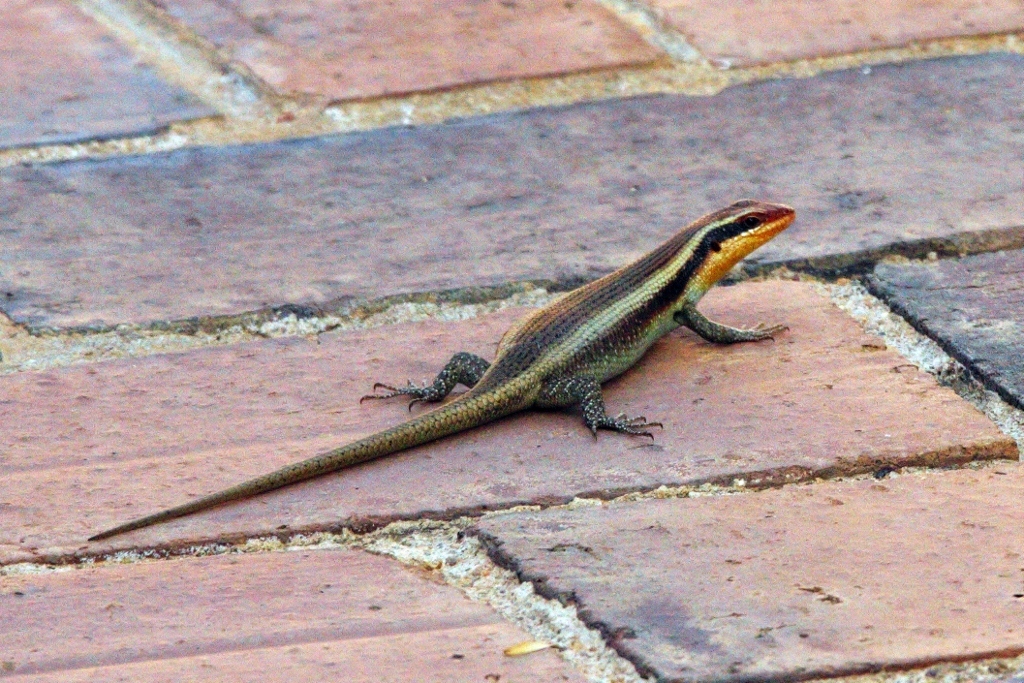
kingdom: Animalia
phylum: Chordata
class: Squamata
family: Scincidae
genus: Trachylepis
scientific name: Trachylepis wahlbergii
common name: Wahlberg’s striped skink
